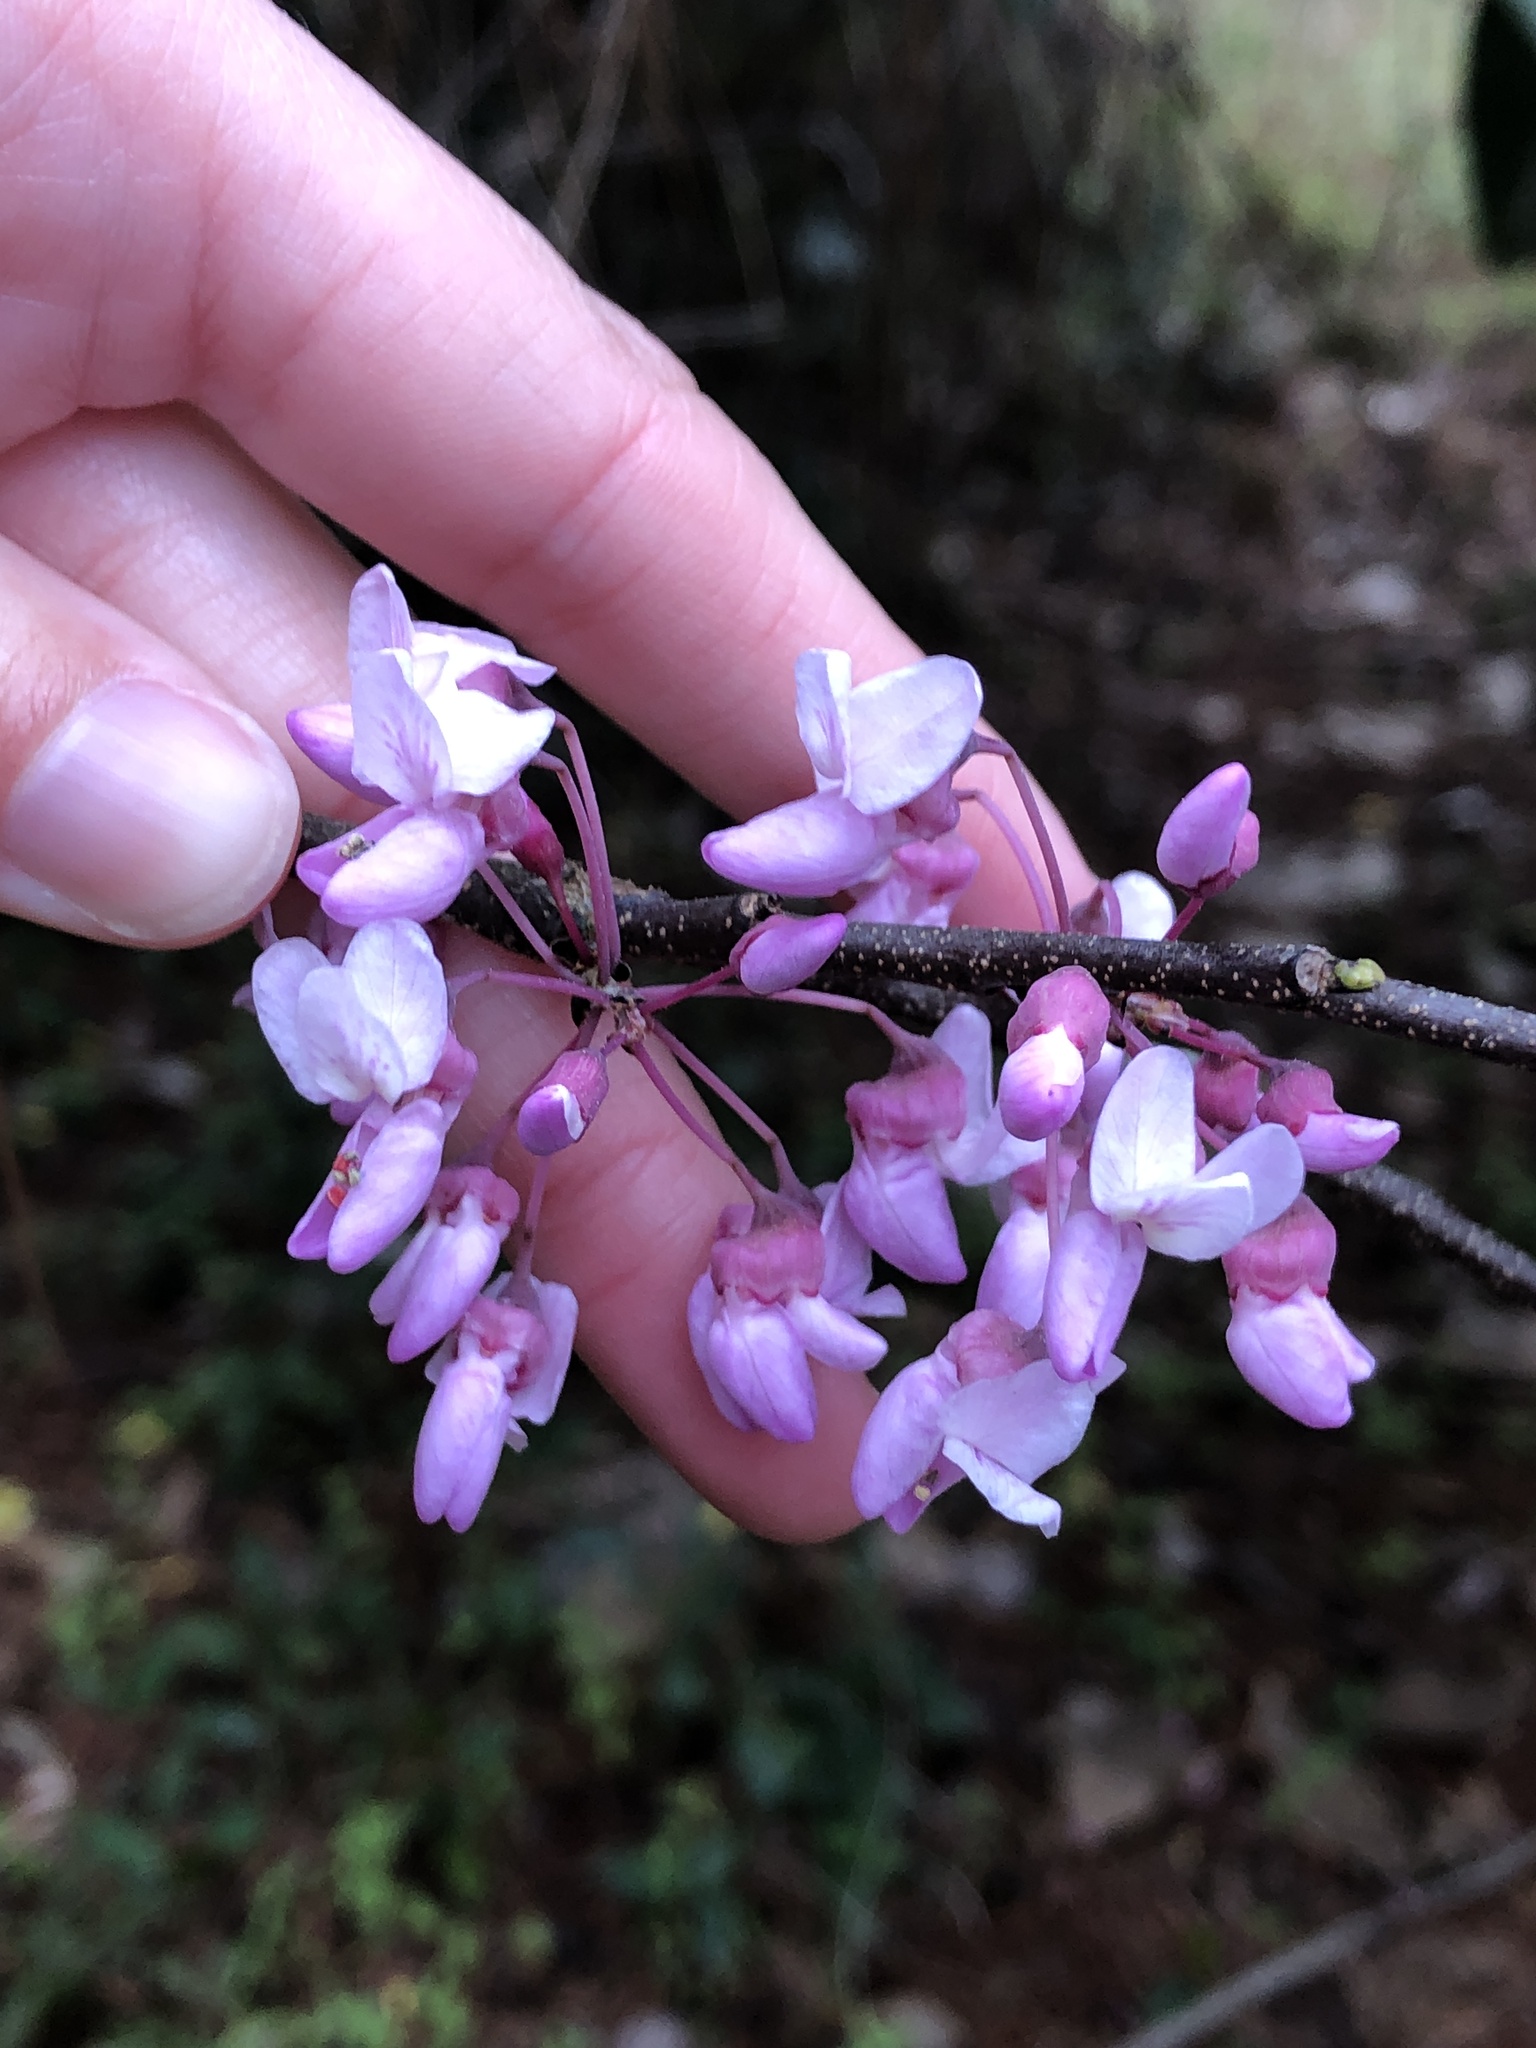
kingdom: Plantae
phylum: Tracheophyta
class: Magnoliopsida
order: Fabales
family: Fabaceae
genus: Cercis
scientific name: Cercis canadensis
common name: Eastern redbud
